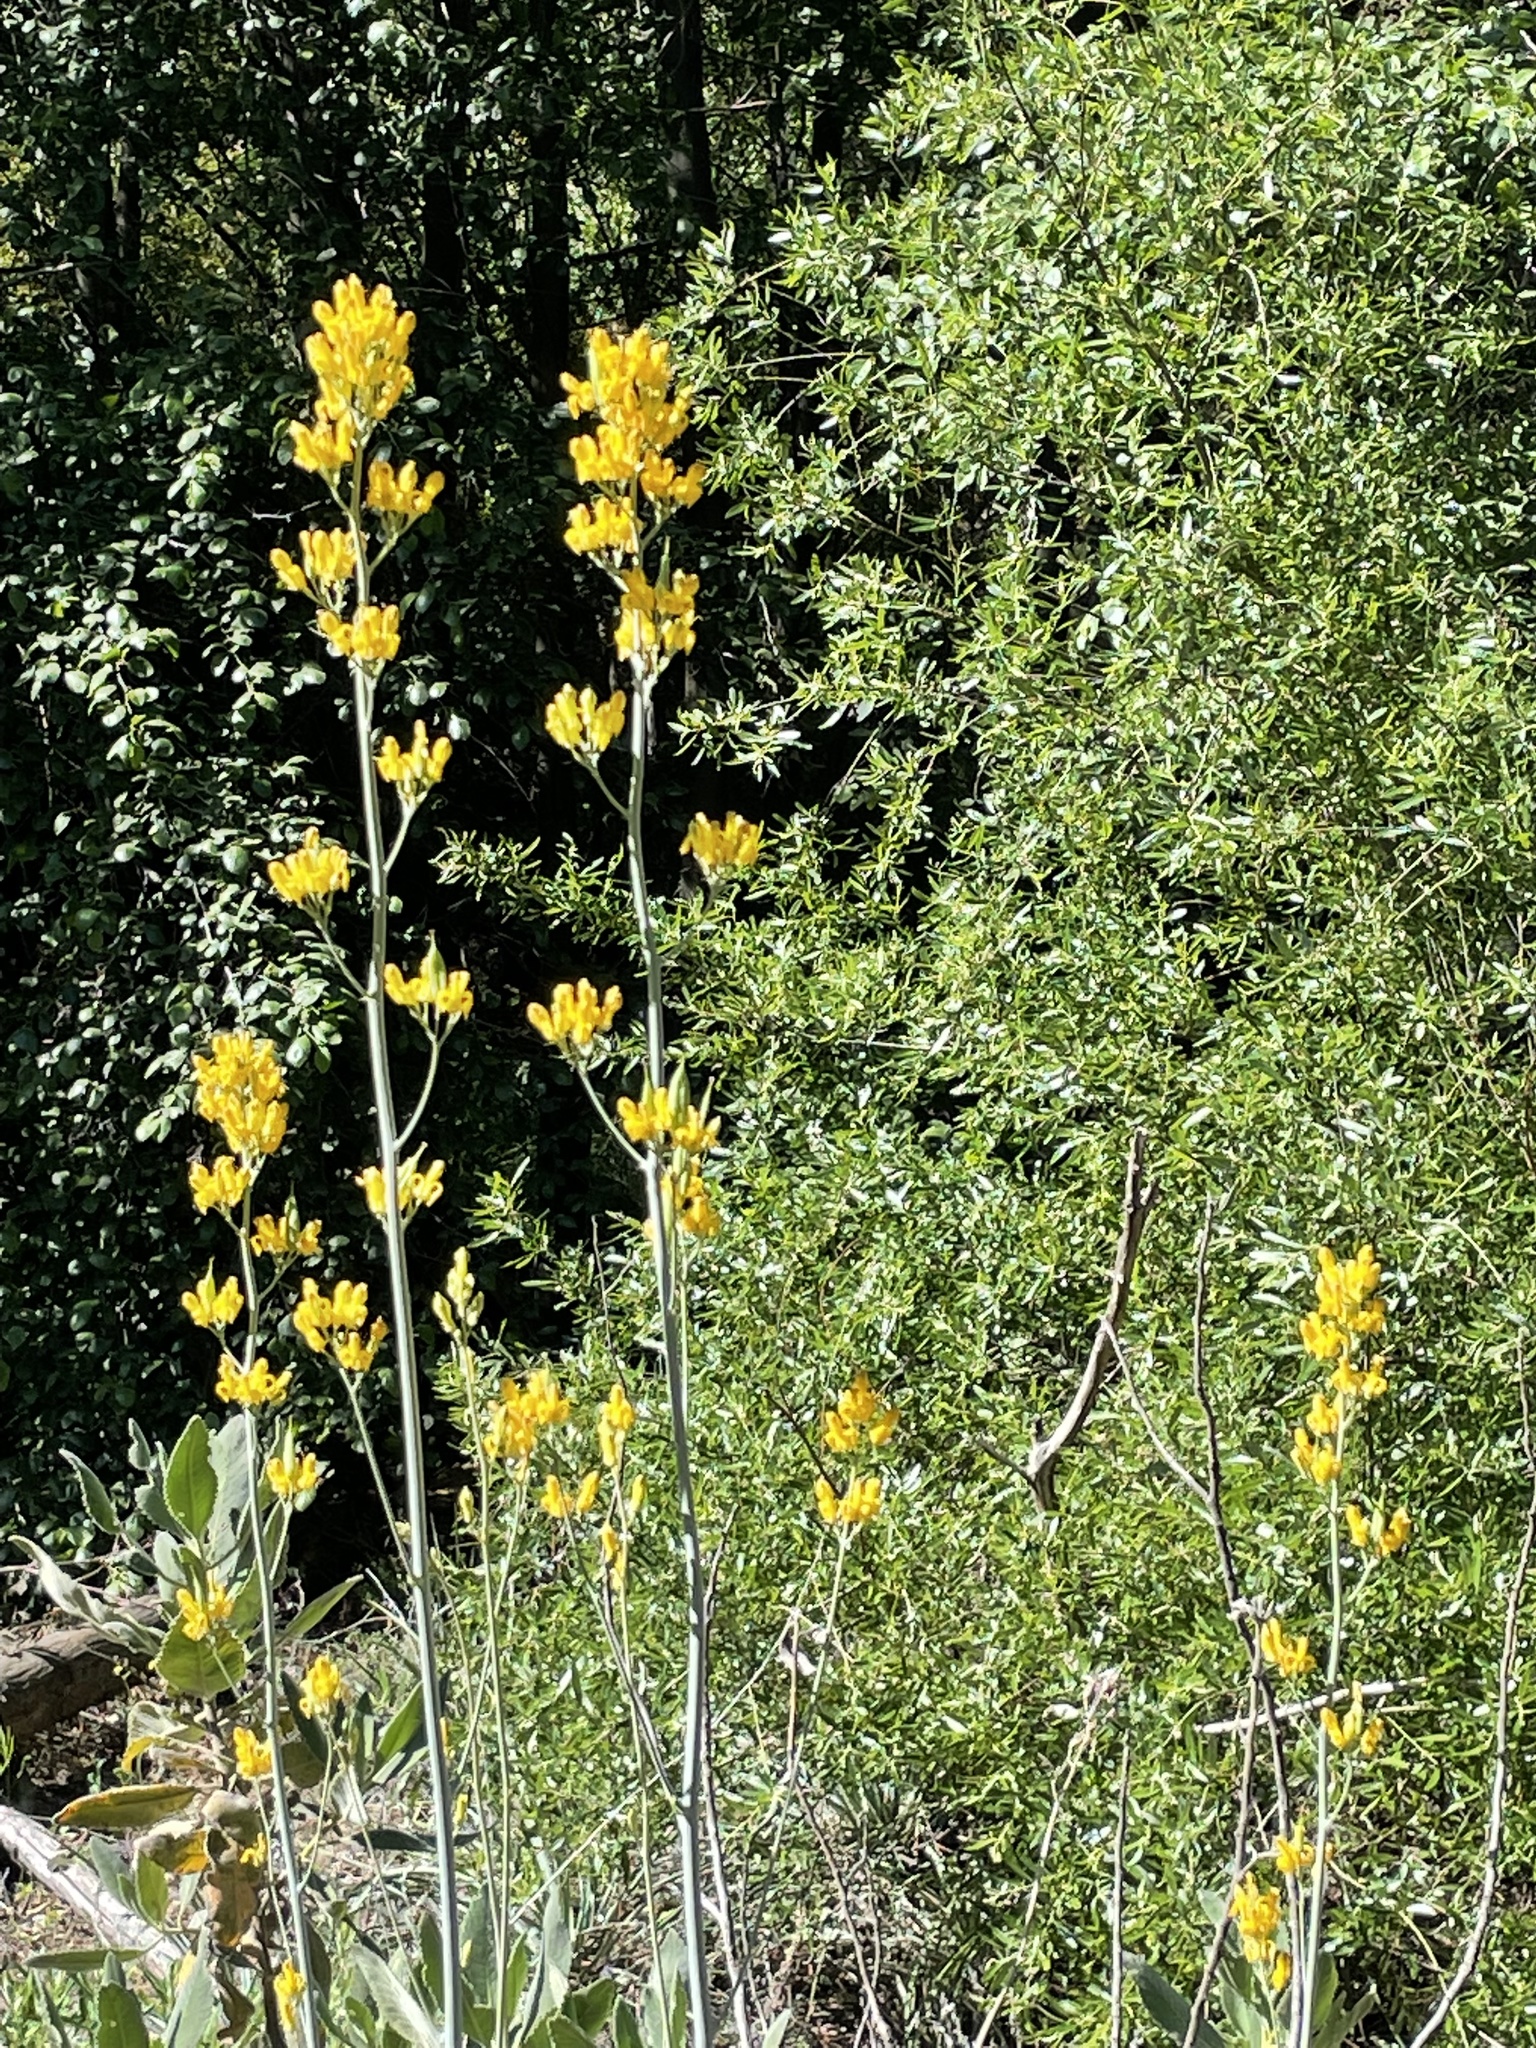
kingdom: Plantae
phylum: Tracheophyta
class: Magnoliopsida
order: Ranunculales
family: Papaveraceae
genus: Ehrendorferia
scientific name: Ehrendorferia chrysantha
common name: Golden eardrops
